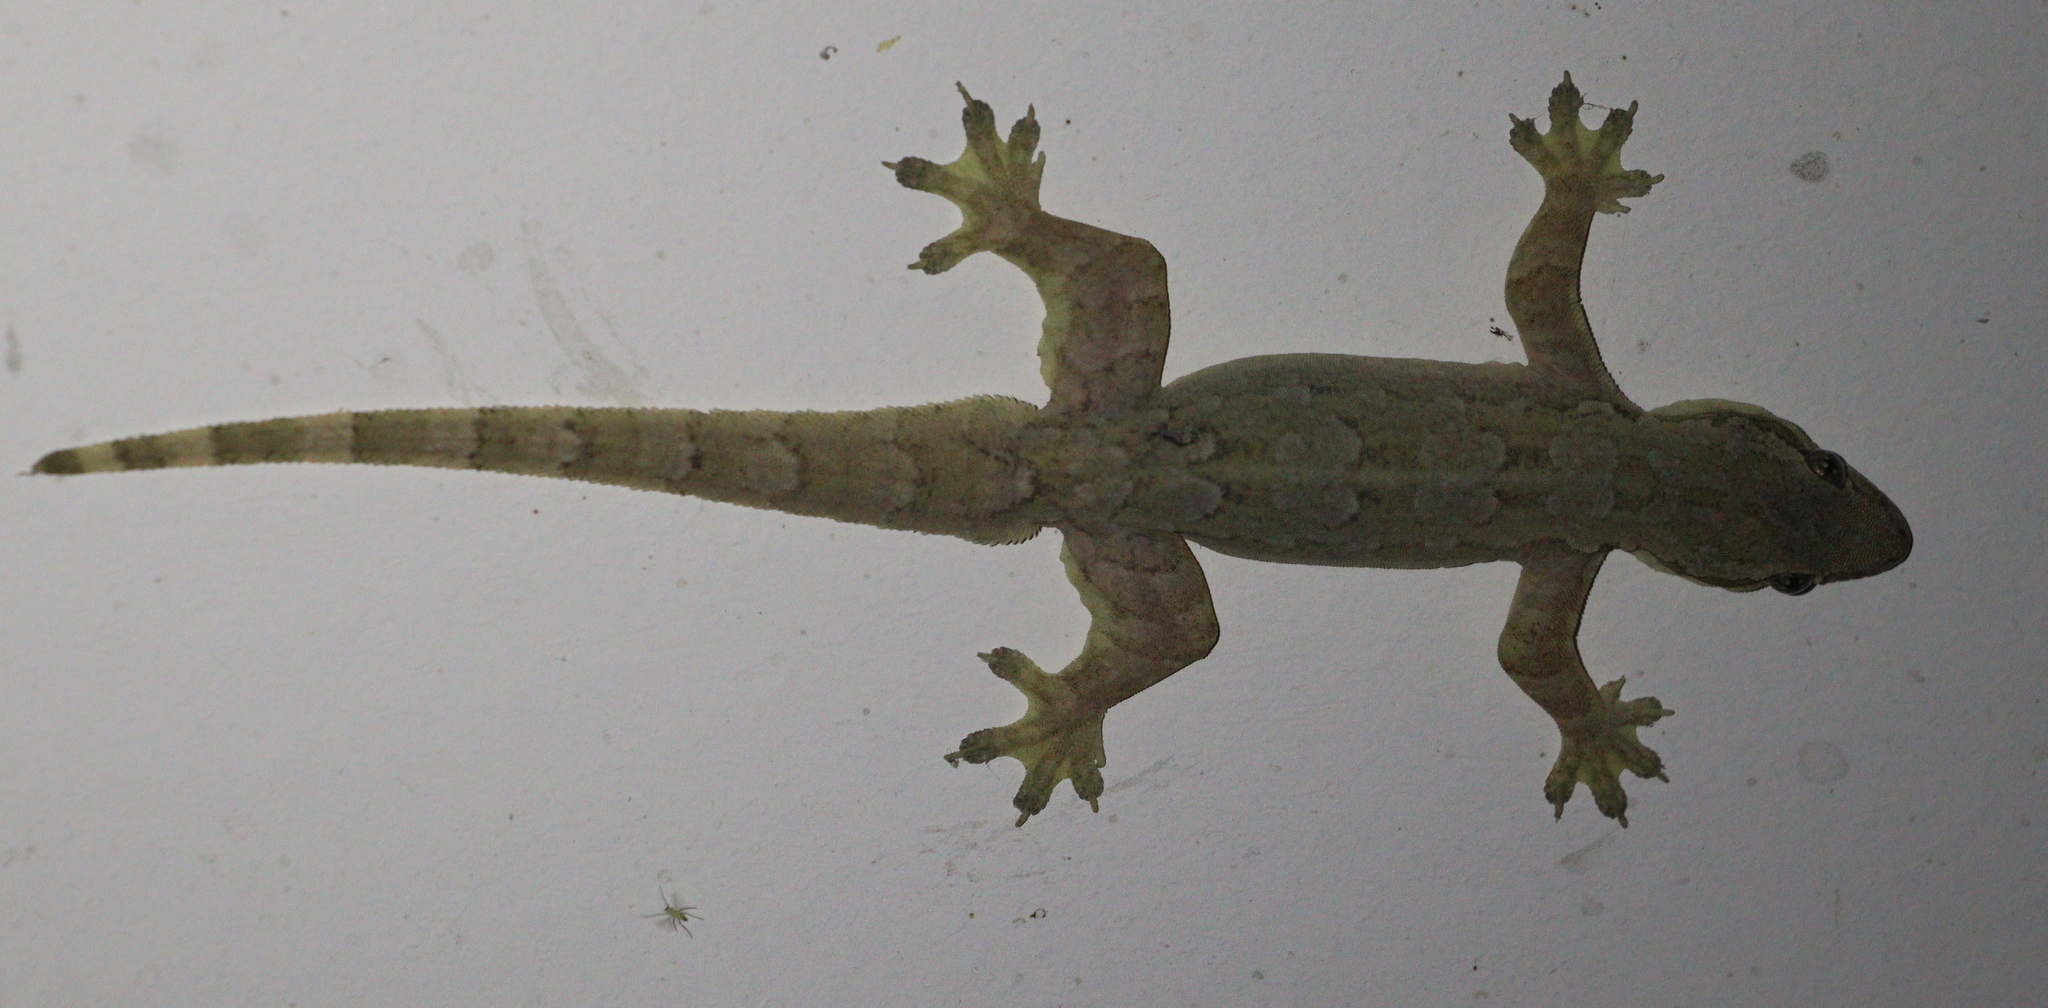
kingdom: Animalia
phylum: Chordata
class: Squamata
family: Gekkonidae
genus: Hemidactylus
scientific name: Hemidactylus platyurus
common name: Flat-tailed house gecko
